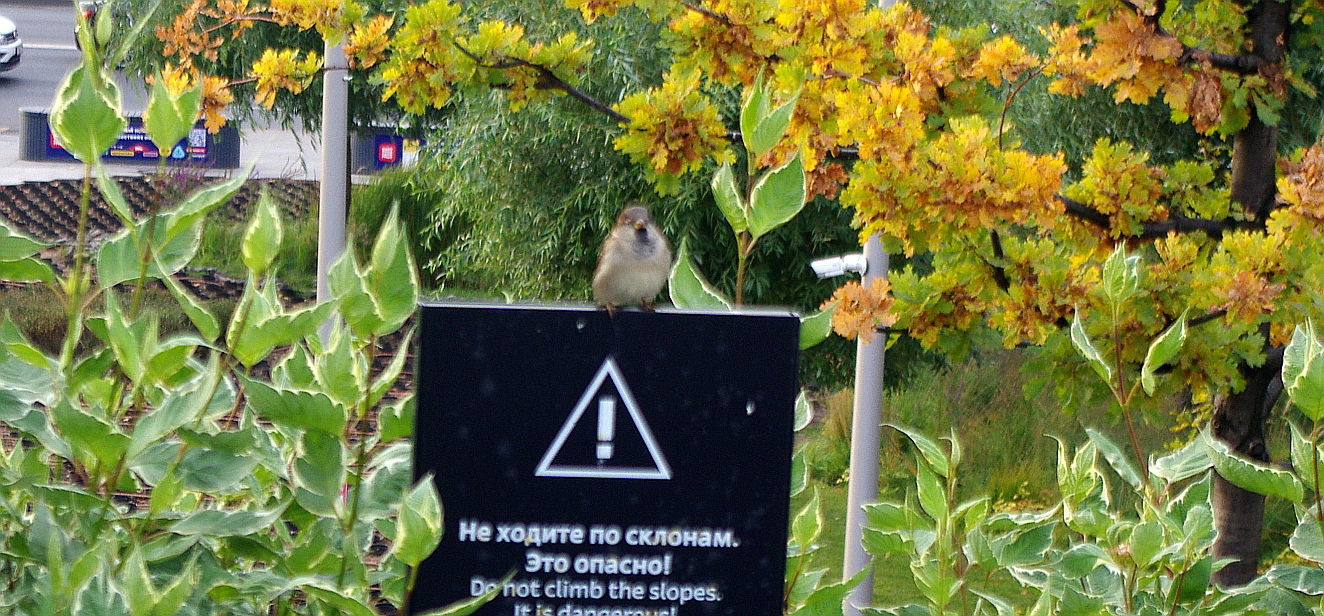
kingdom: Animalia
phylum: Chordata
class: Aves
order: Passeriformes
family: Passeridae
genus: Passer
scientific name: Passer domesticus
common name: House sparrow
